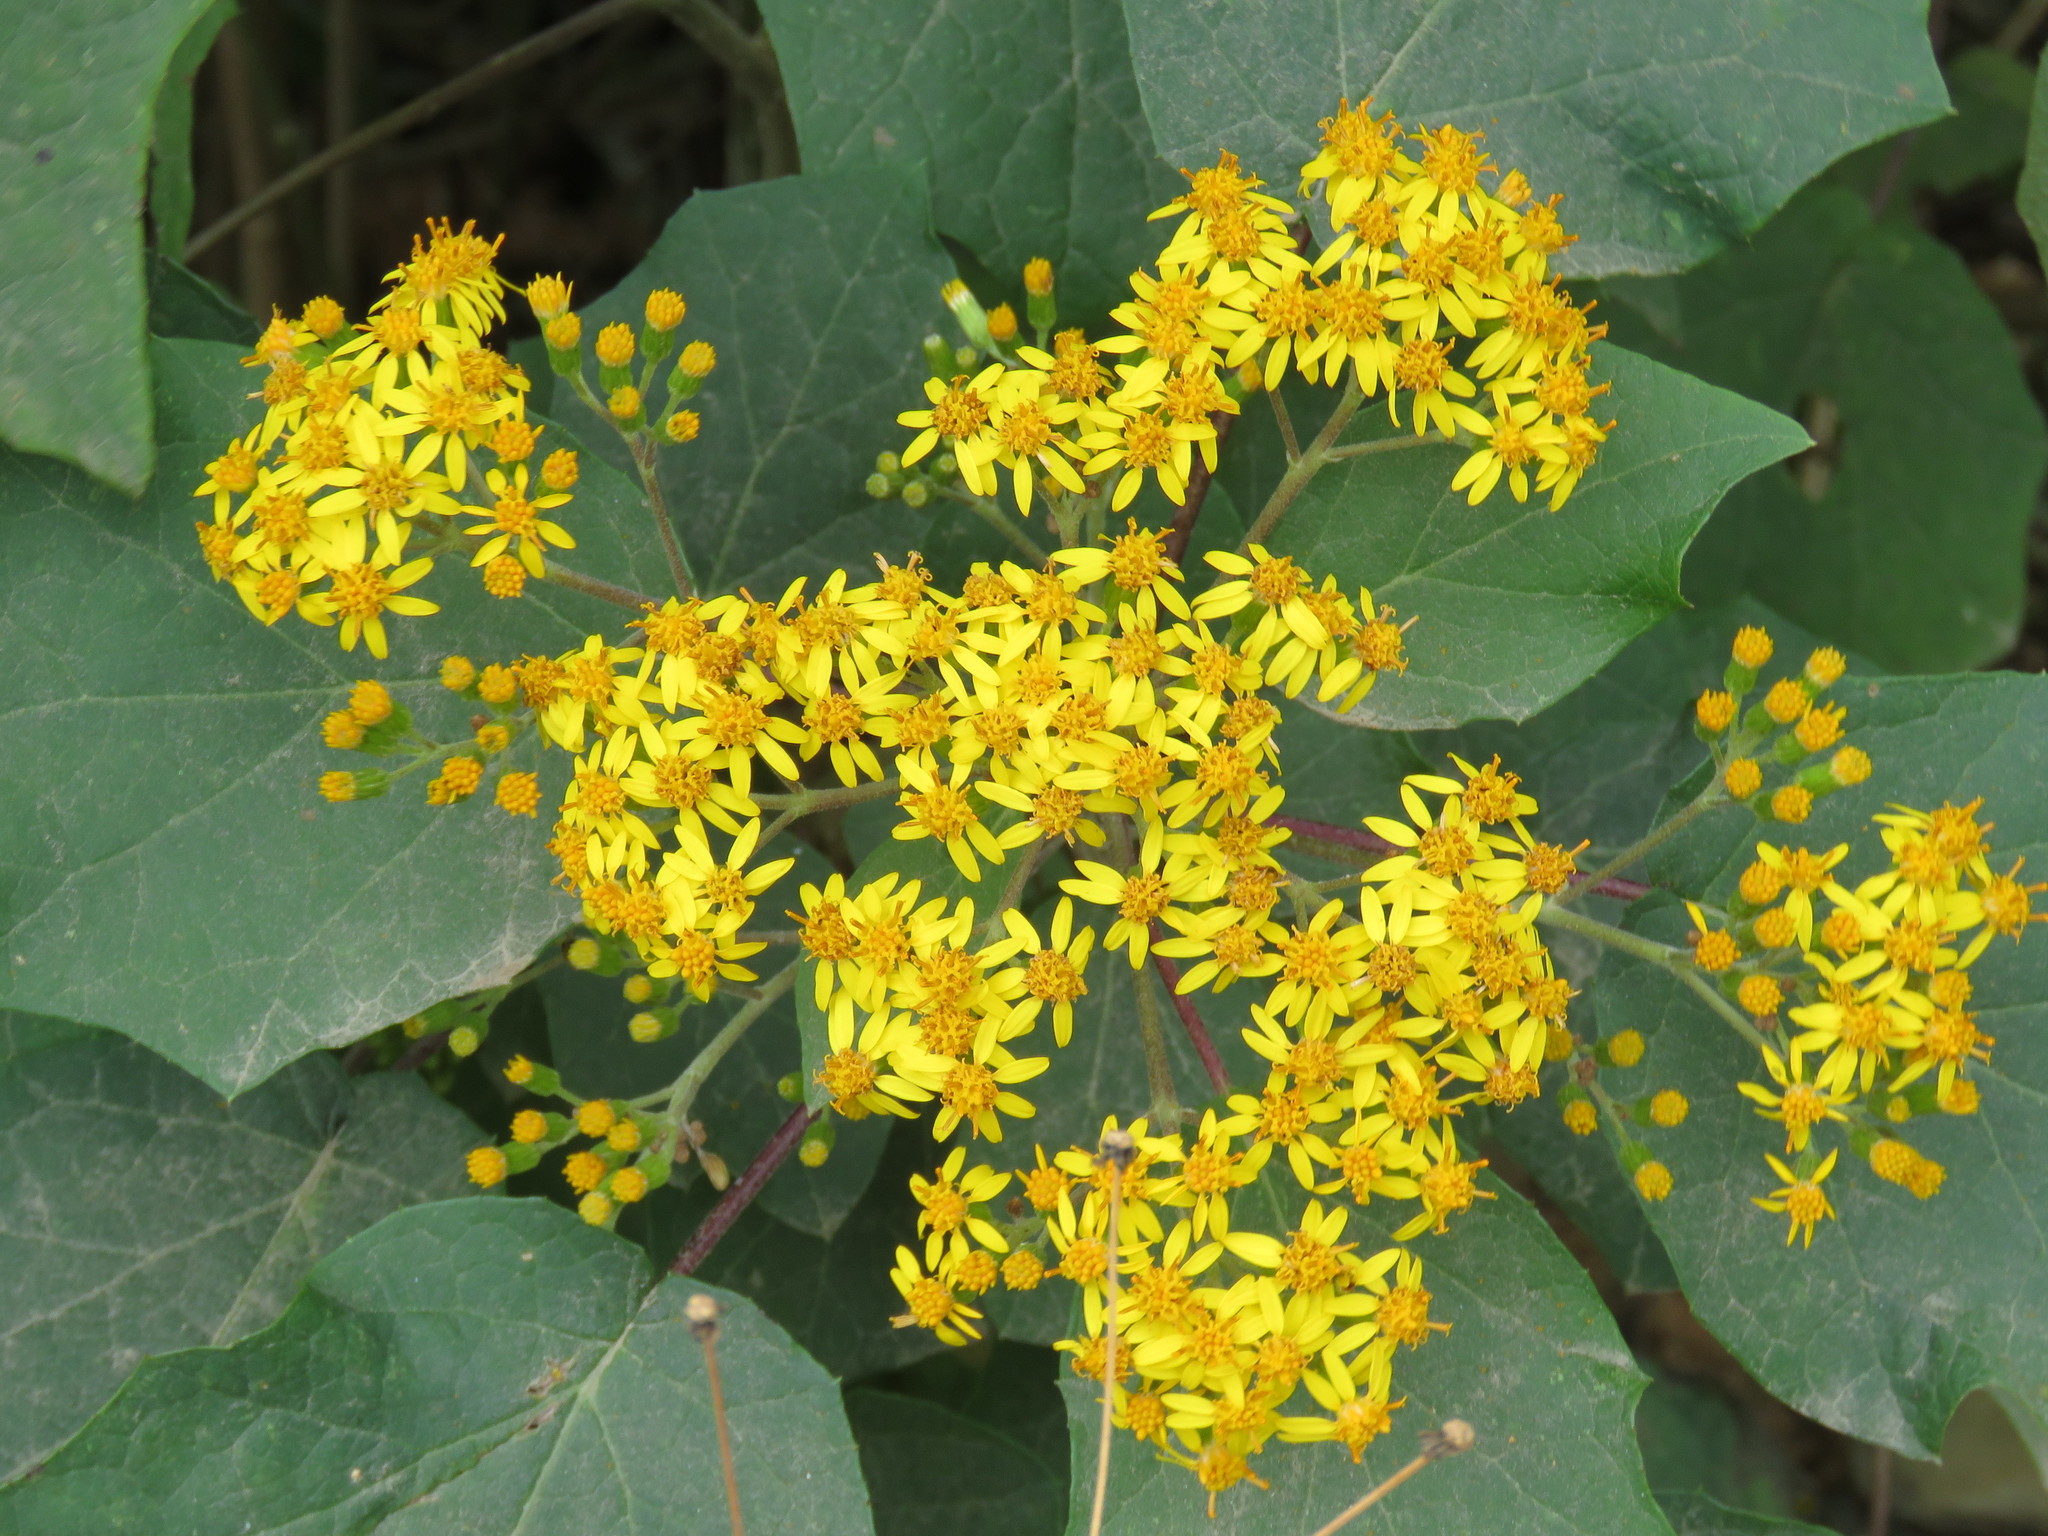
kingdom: Plantae
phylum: Tracheophyta
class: Magnoliopsida
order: Asterales
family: Asteraceae
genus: Roldana
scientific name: Roldana aschenborniana
